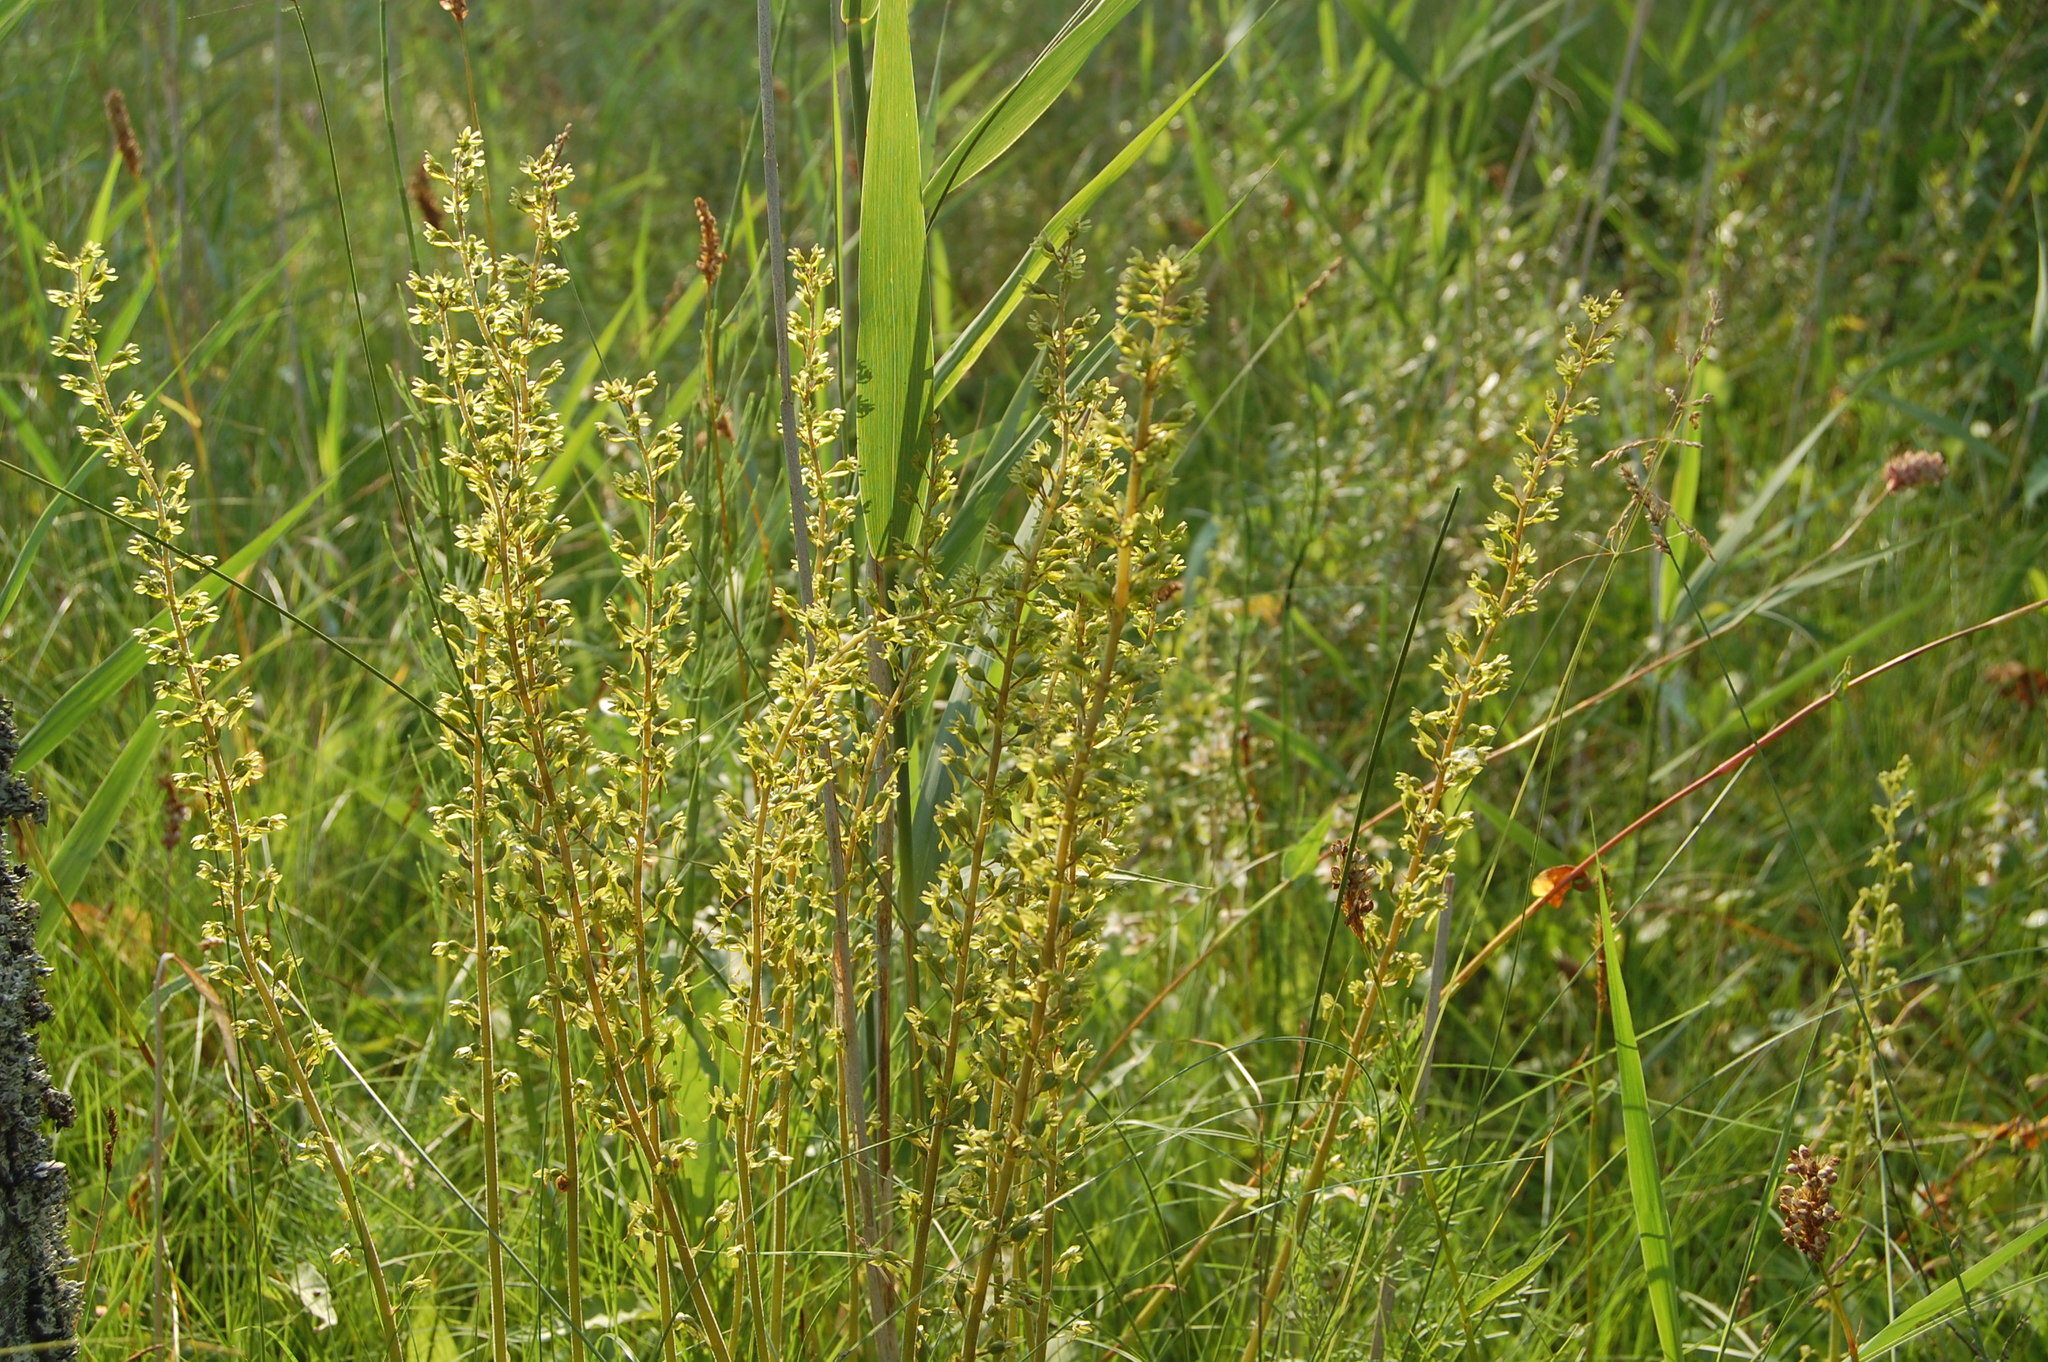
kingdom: Plantae
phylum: Tracheophyta
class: Liliopsida
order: Asparagales
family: Orchidaceae
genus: Neottia
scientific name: Neottia ovata
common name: Common twayblade
